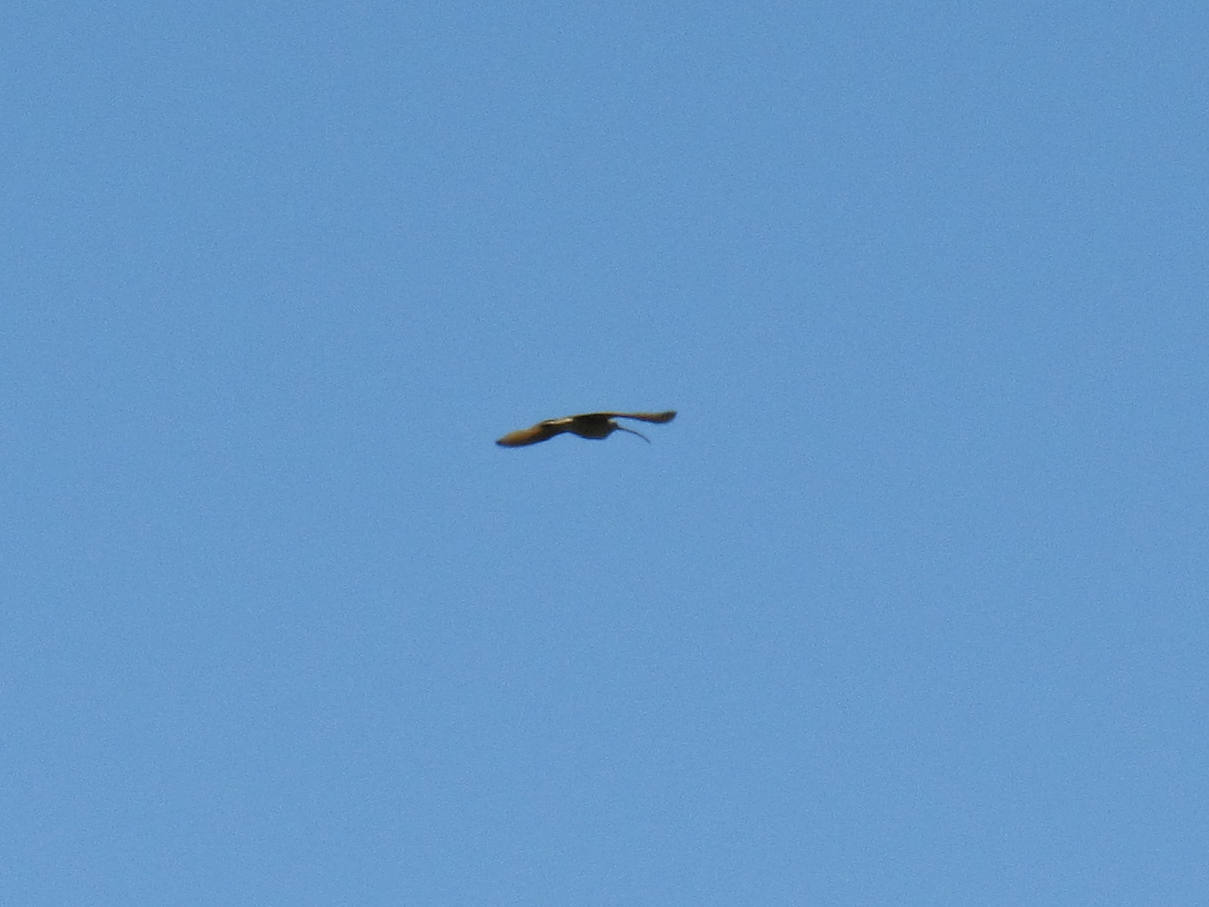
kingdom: Animalia
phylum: Chordata
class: Aves
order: Charadriiformes
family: Scolopacidae
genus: Numenius
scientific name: Numenius americanus
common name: Long-billed curlew
